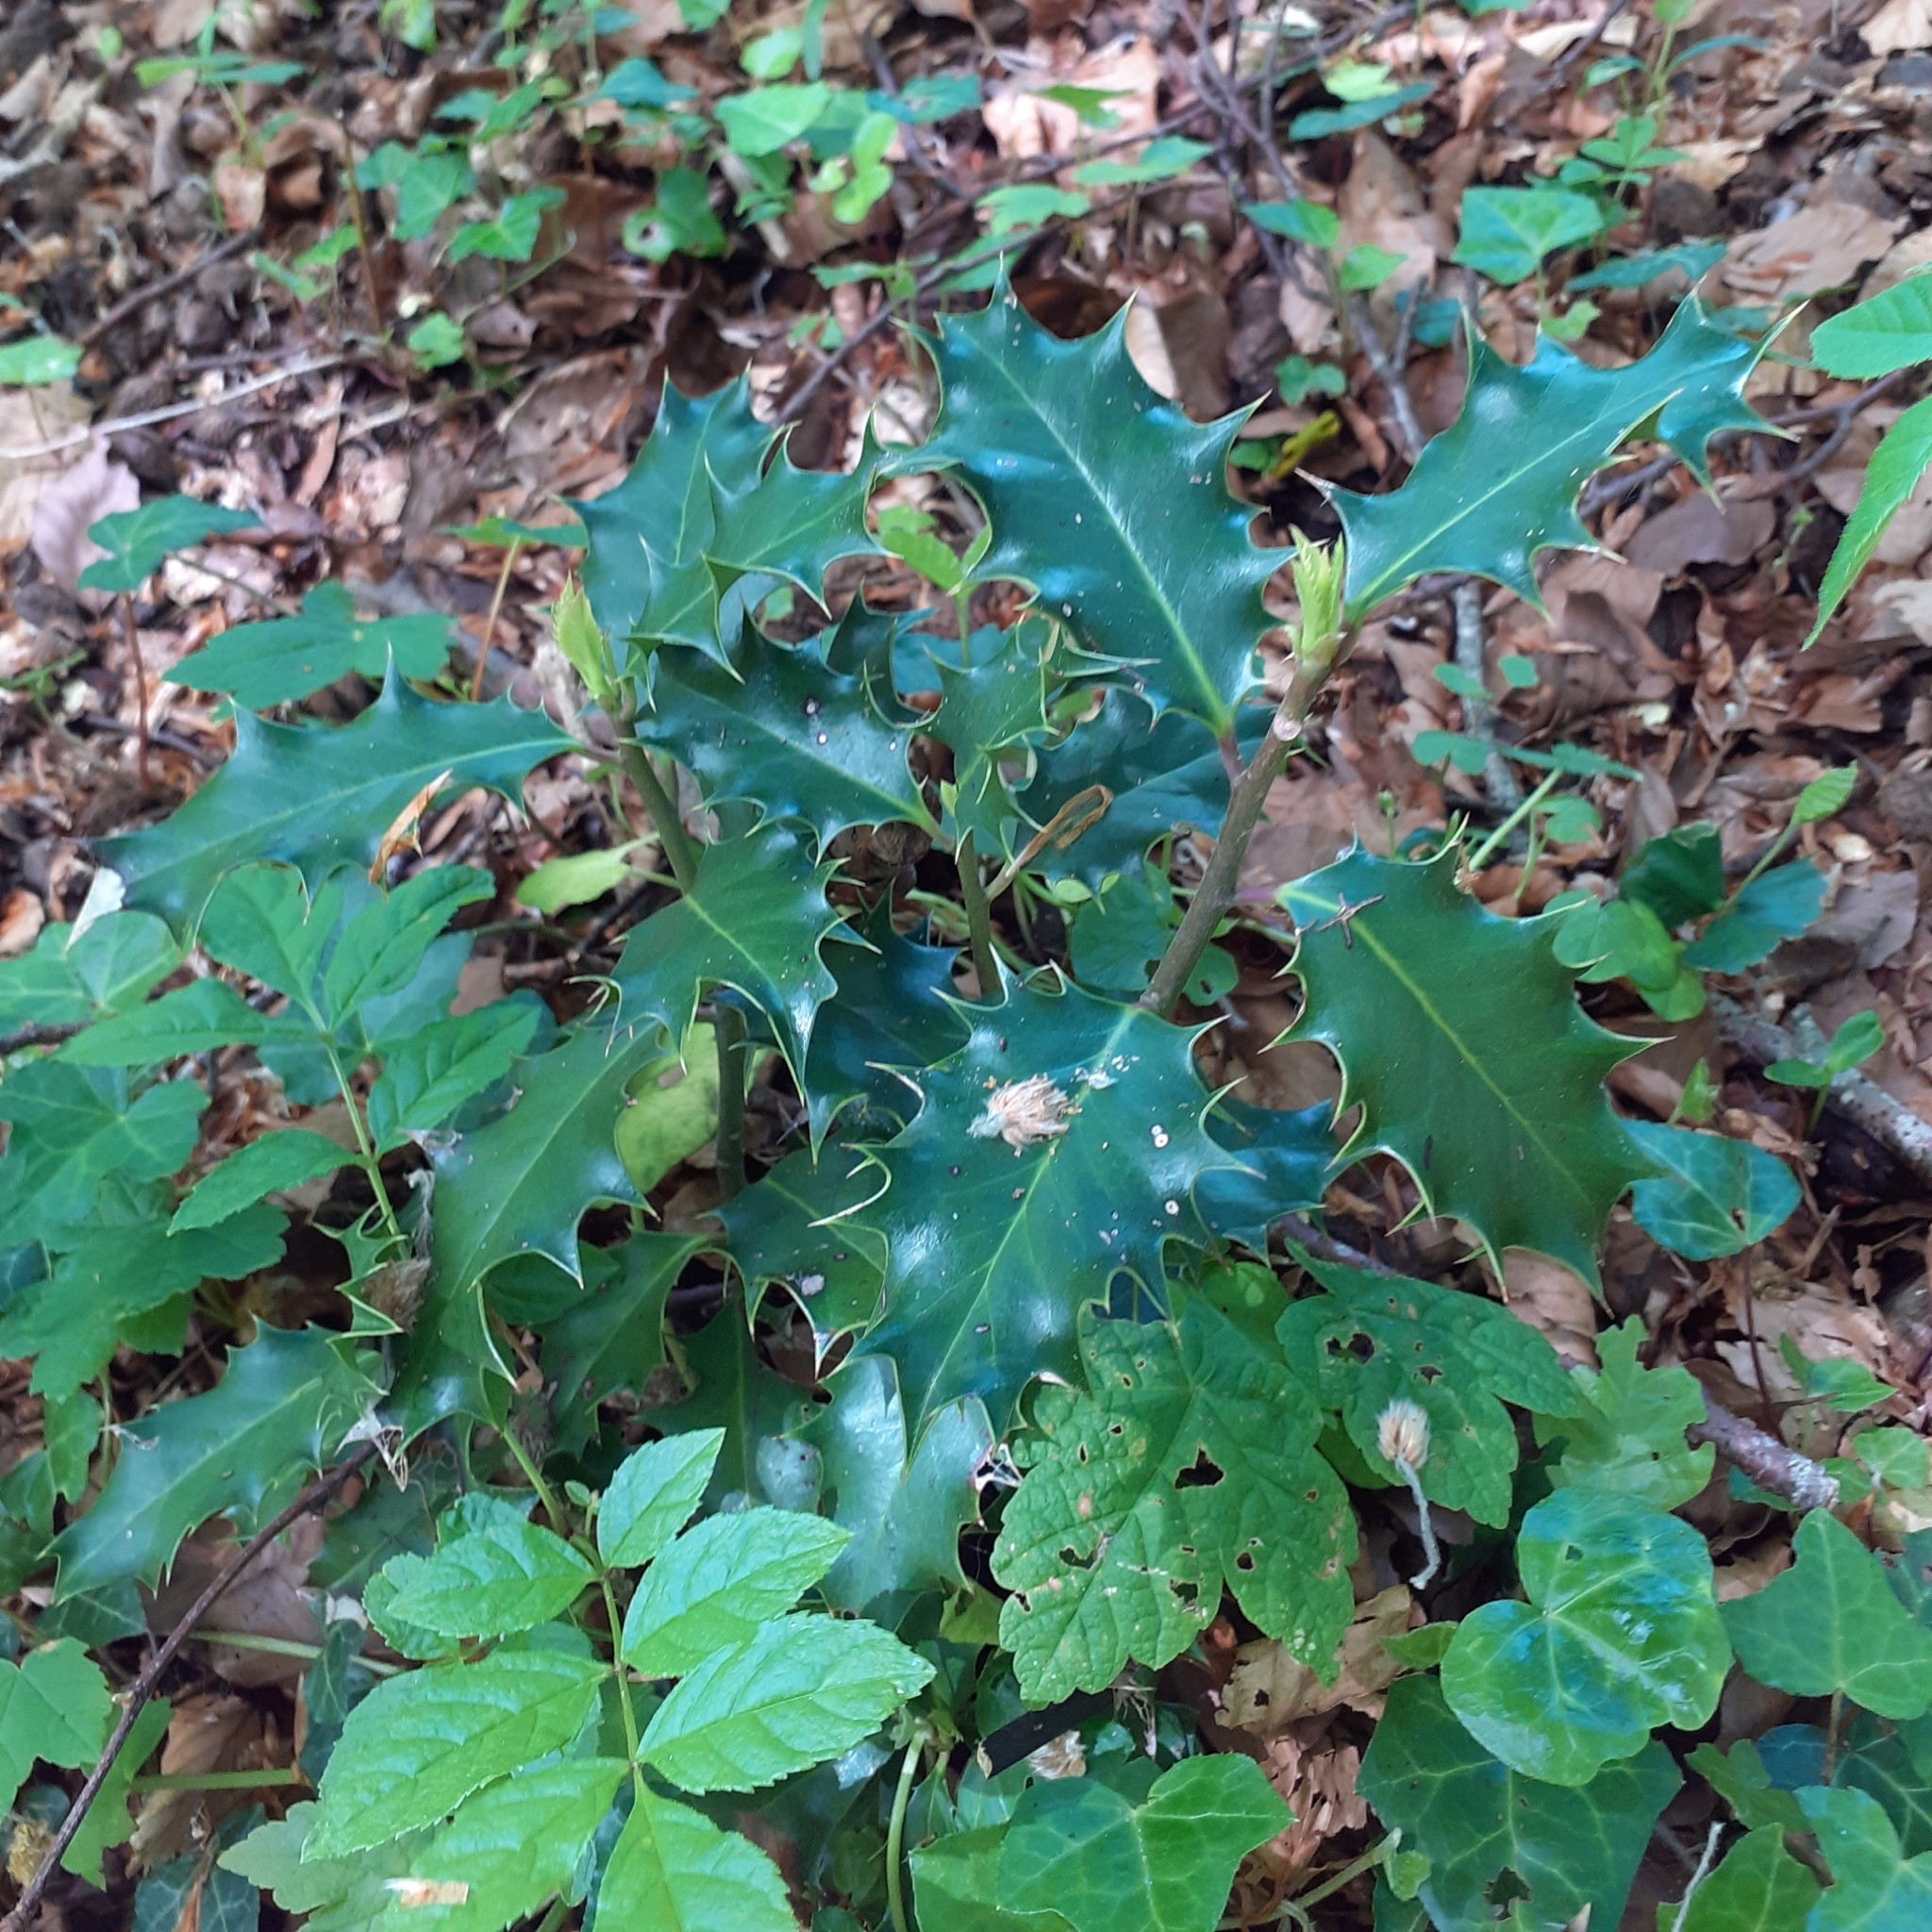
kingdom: Plantae
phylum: Tracheophyta
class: Magnoliopsida
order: Aquifoliales
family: Aquifoliaceae
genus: Ilex
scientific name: Ilex aquifolium
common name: English holly
